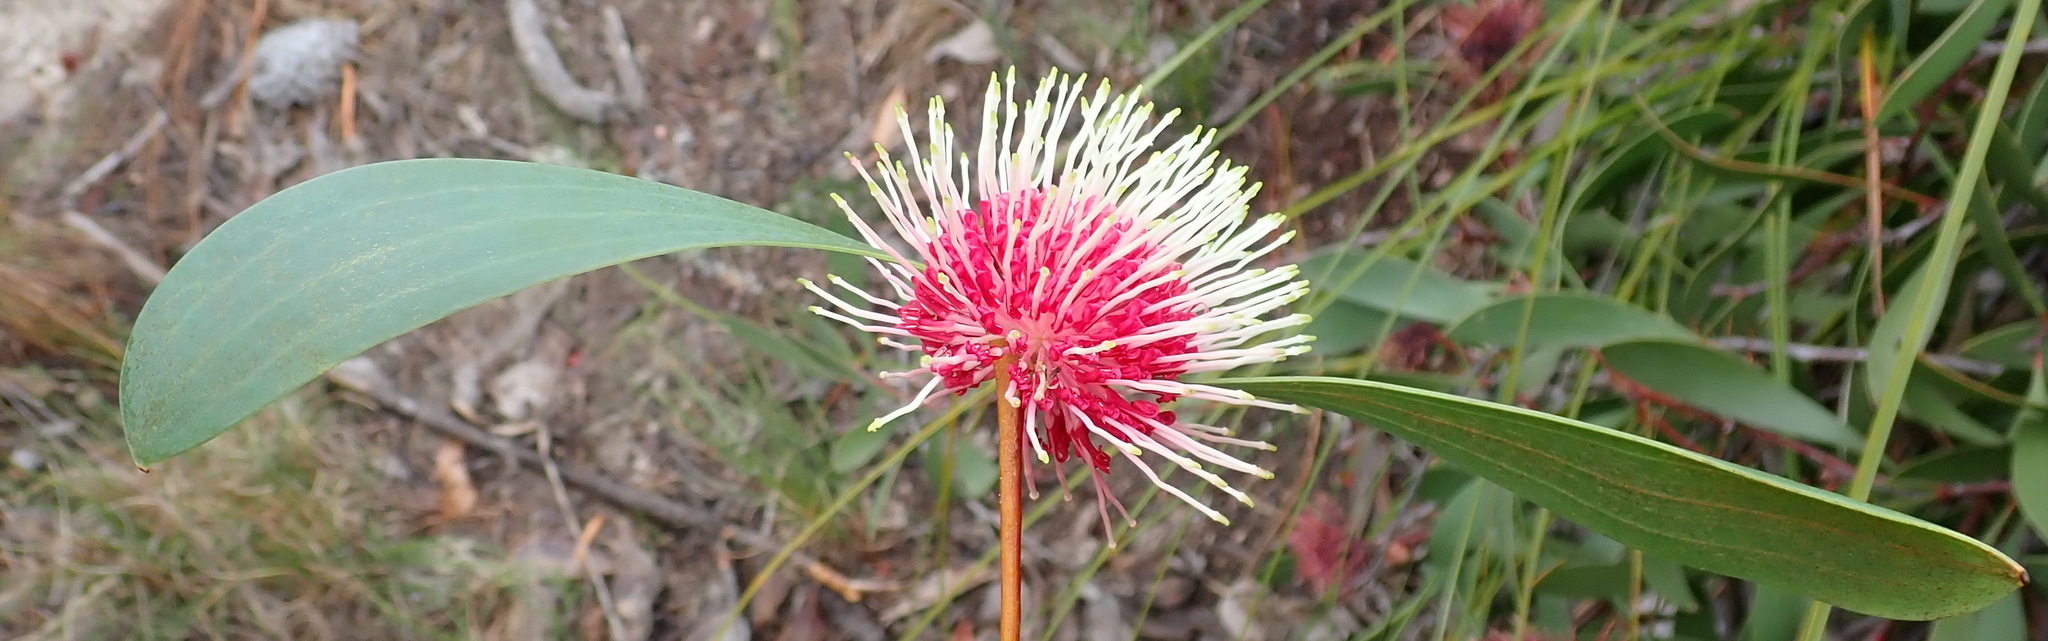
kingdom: Plantae
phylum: Tracheophyta
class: Magnoliopsida
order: Proteales
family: Proteaceae
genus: Hakea
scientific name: Hakea laurina
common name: Cushion hakea
